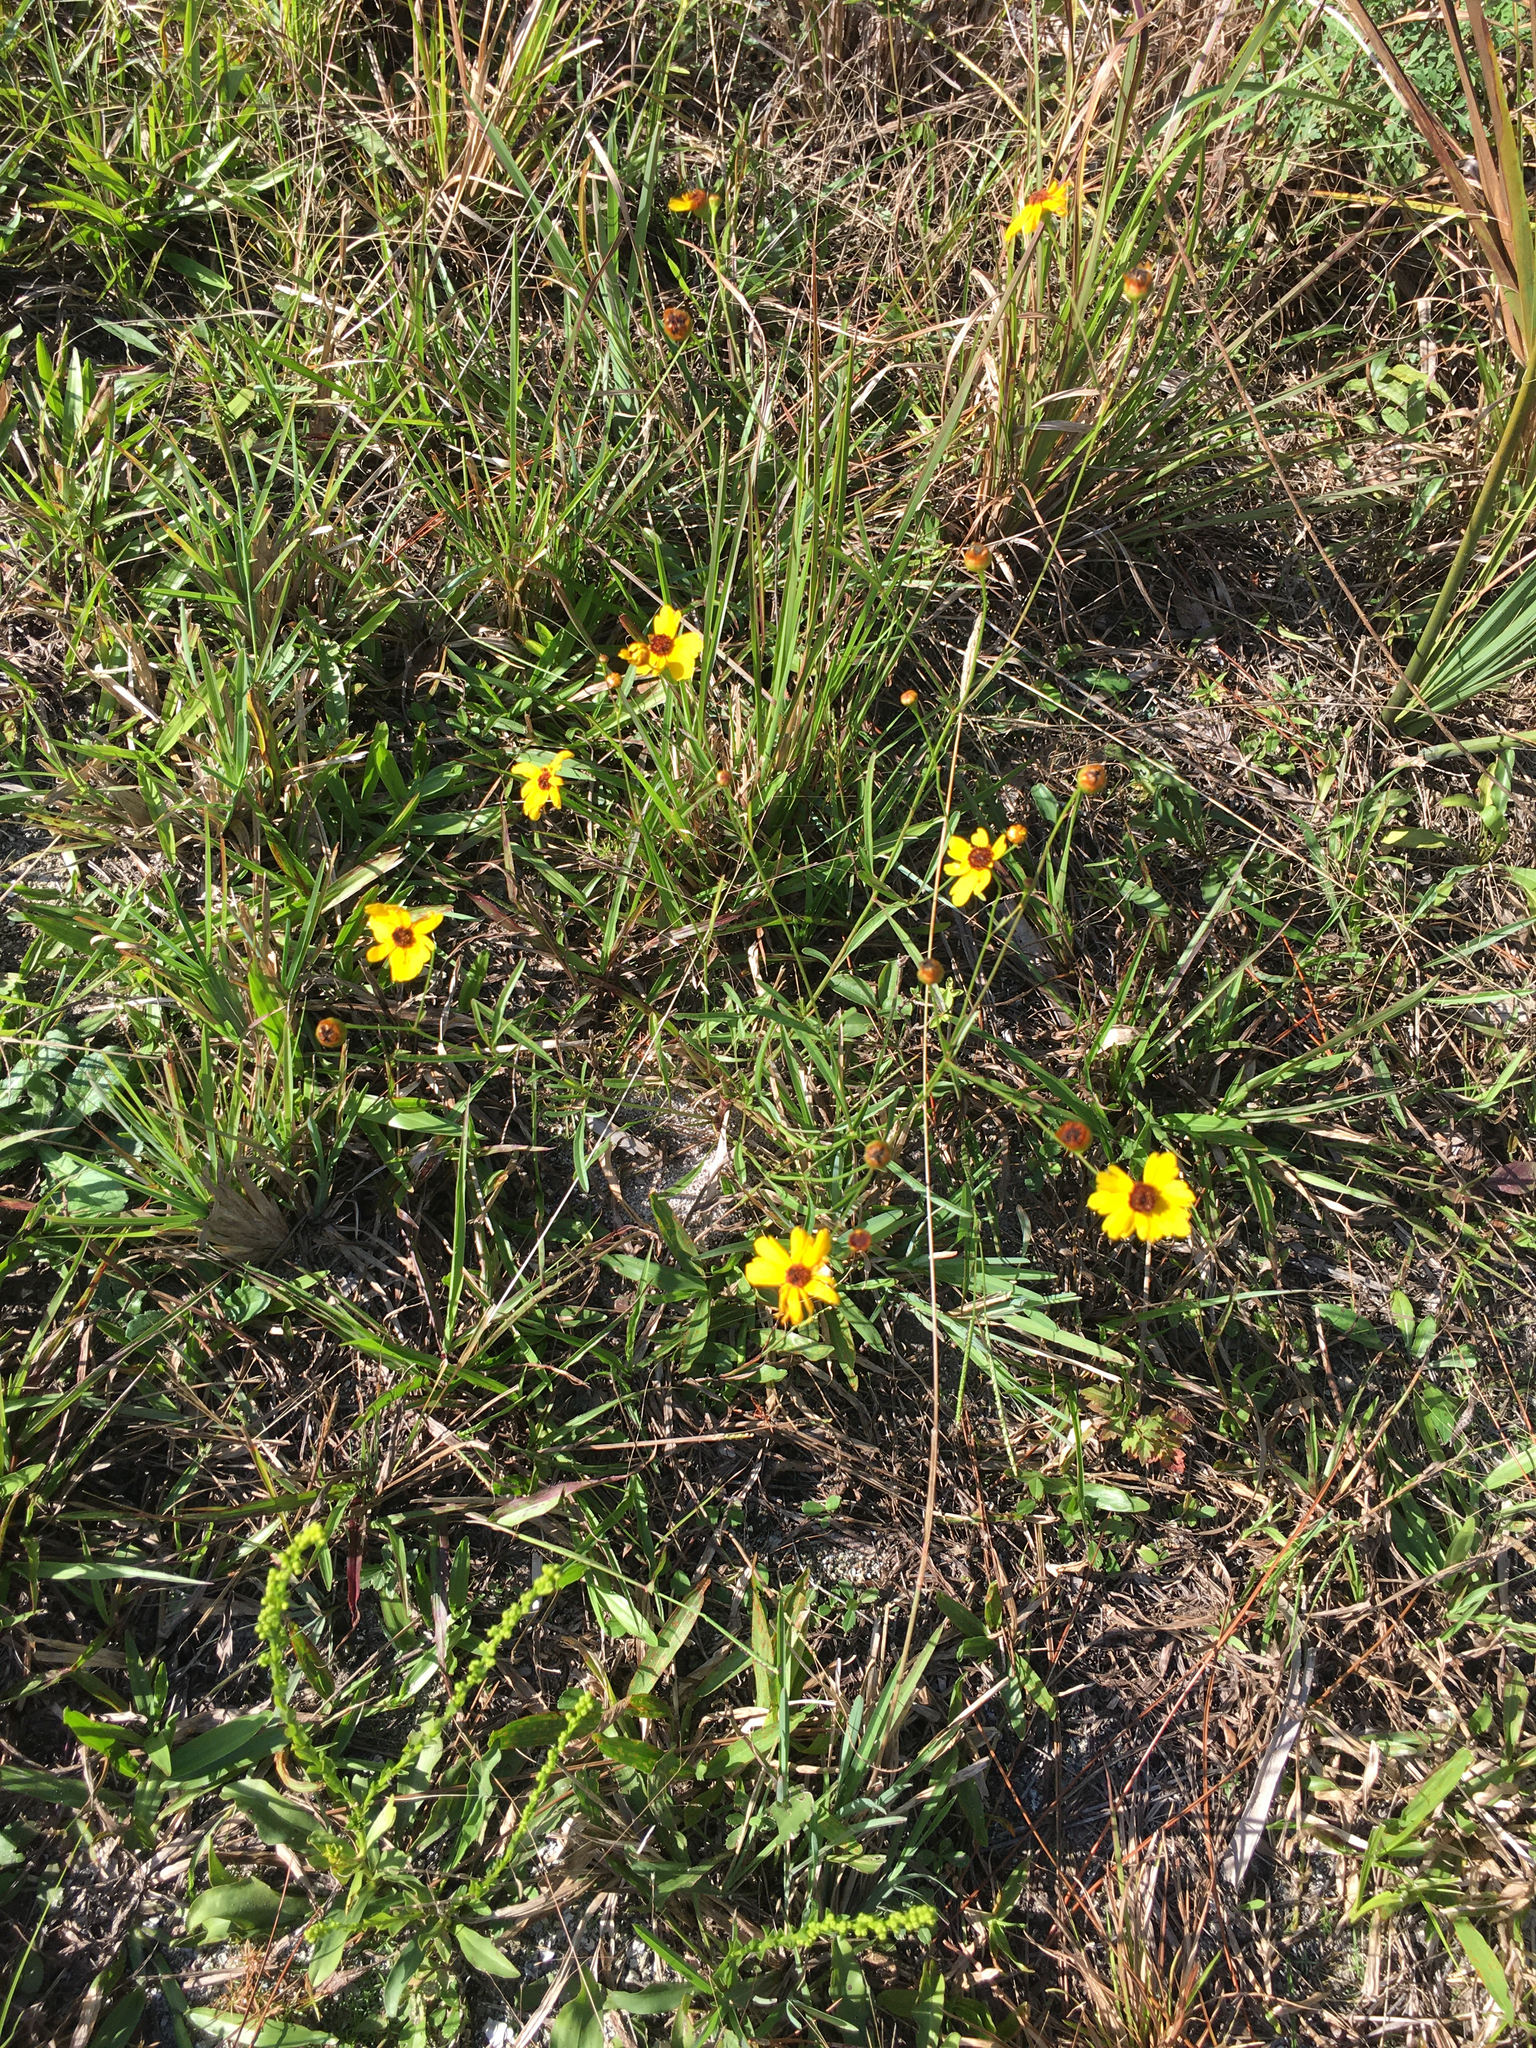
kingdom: Plantae
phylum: Tracheophyta
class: Magnoliopsida
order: Asterales
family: Asteraceae
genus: Coreopsis
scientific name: Coreopsis leavenworthii
